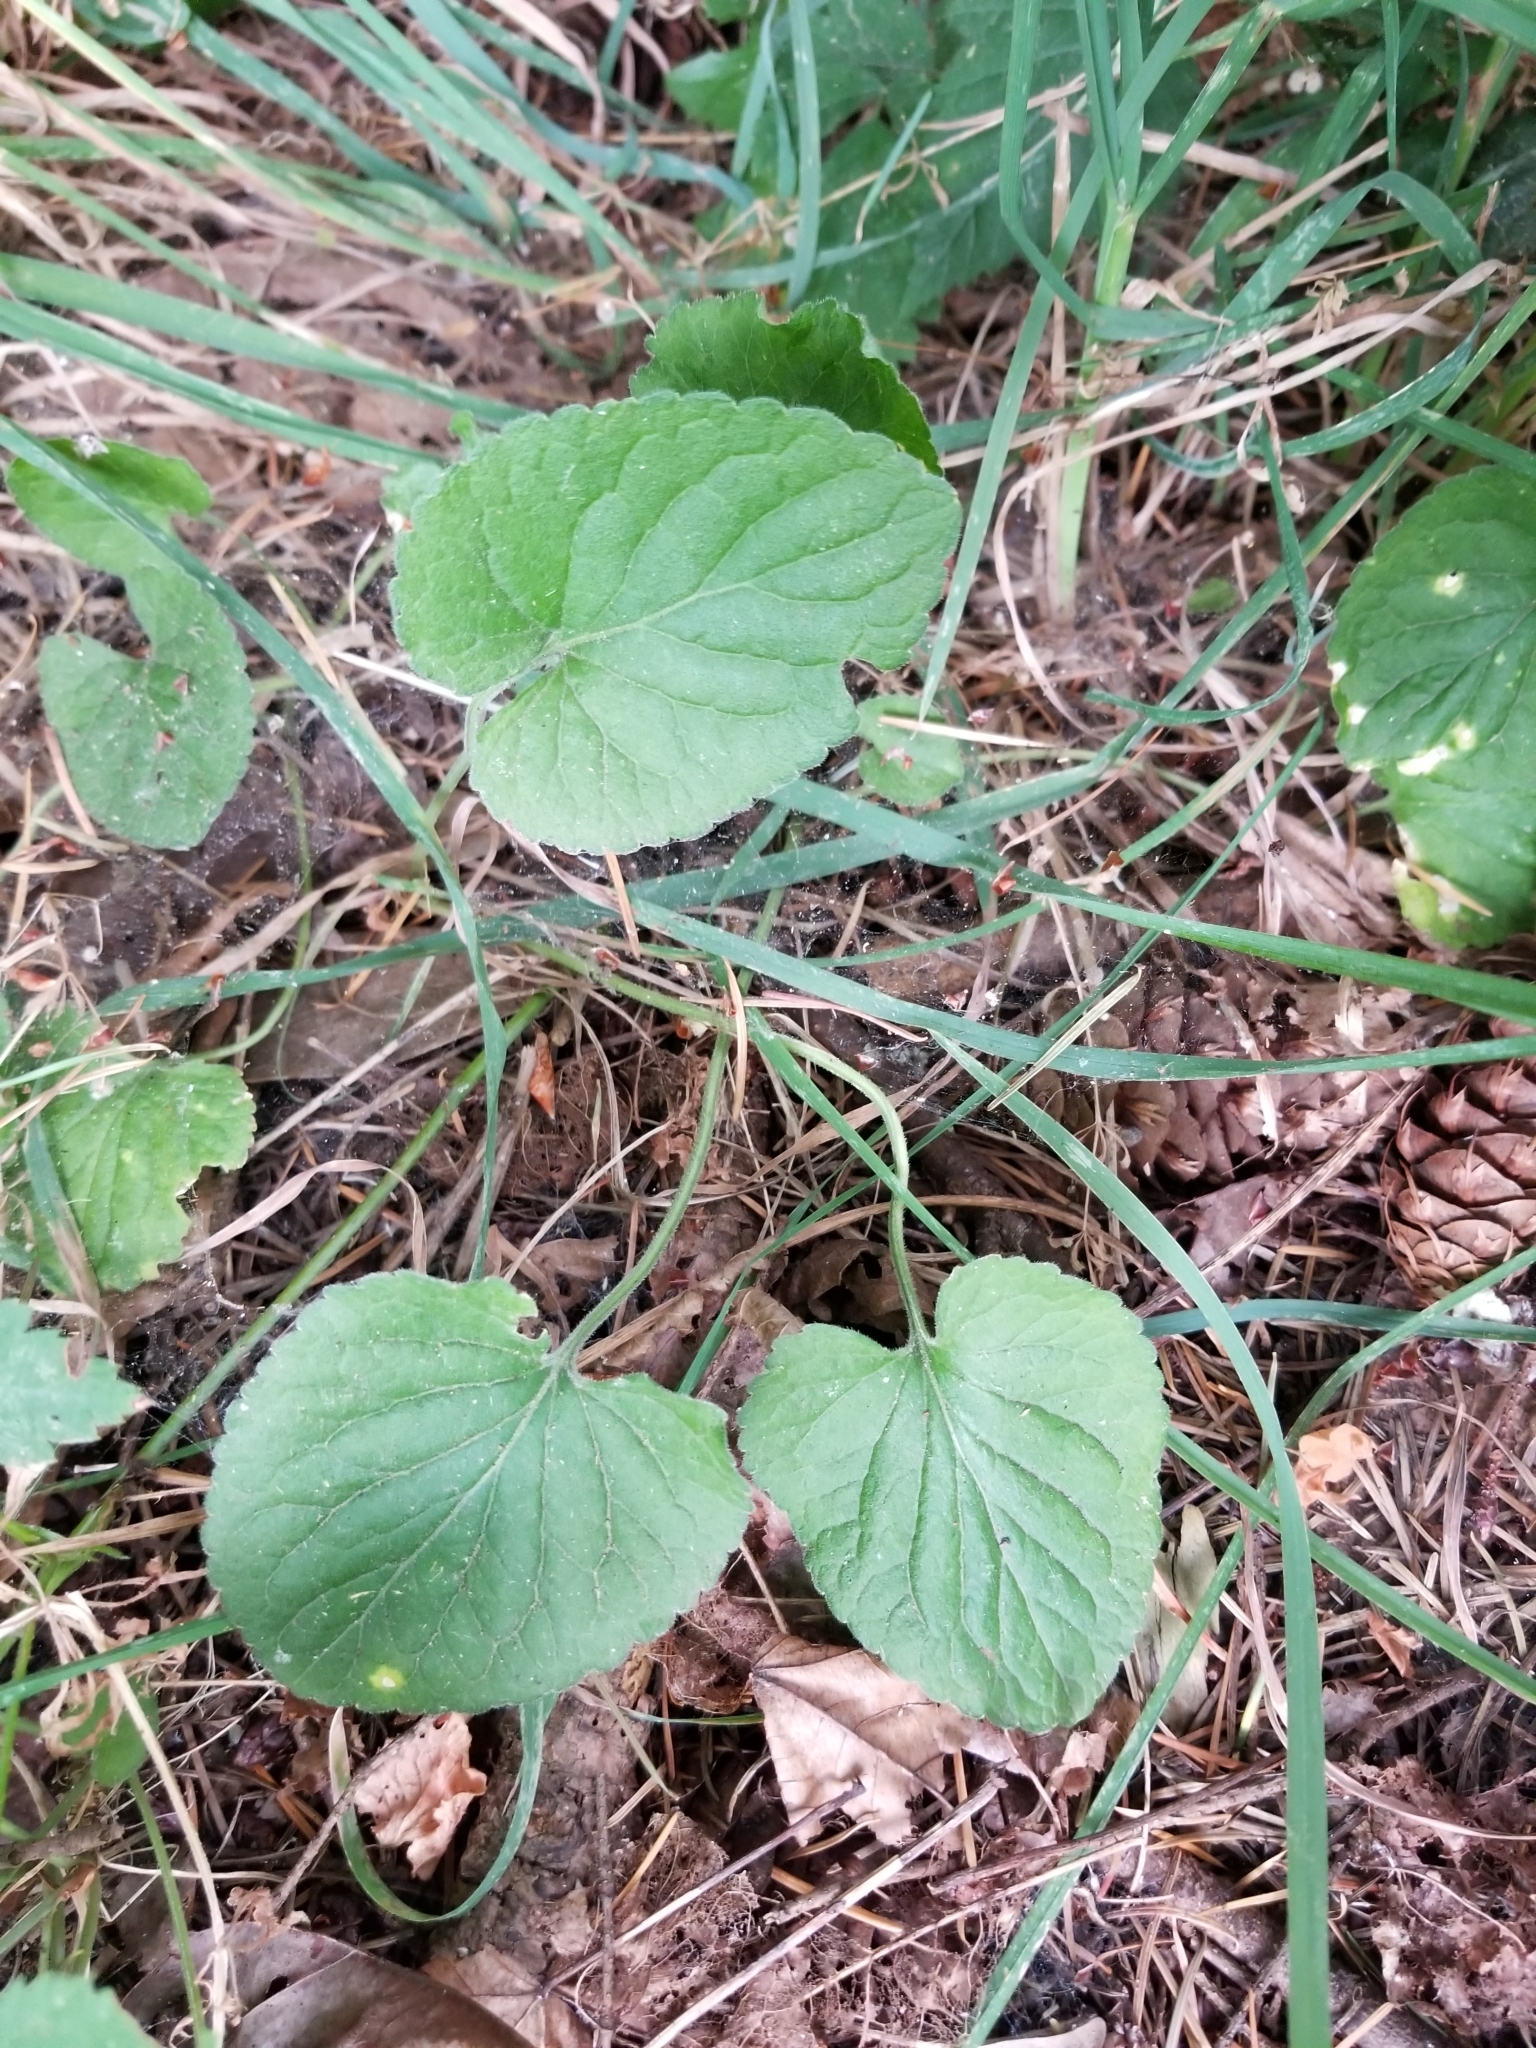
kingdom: Plantae
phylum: Tracheophyta
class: Magnoliopsida
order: Malpighiales
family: Violaceae
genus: Viola
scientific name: Viola odorata
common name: Sweet violet
